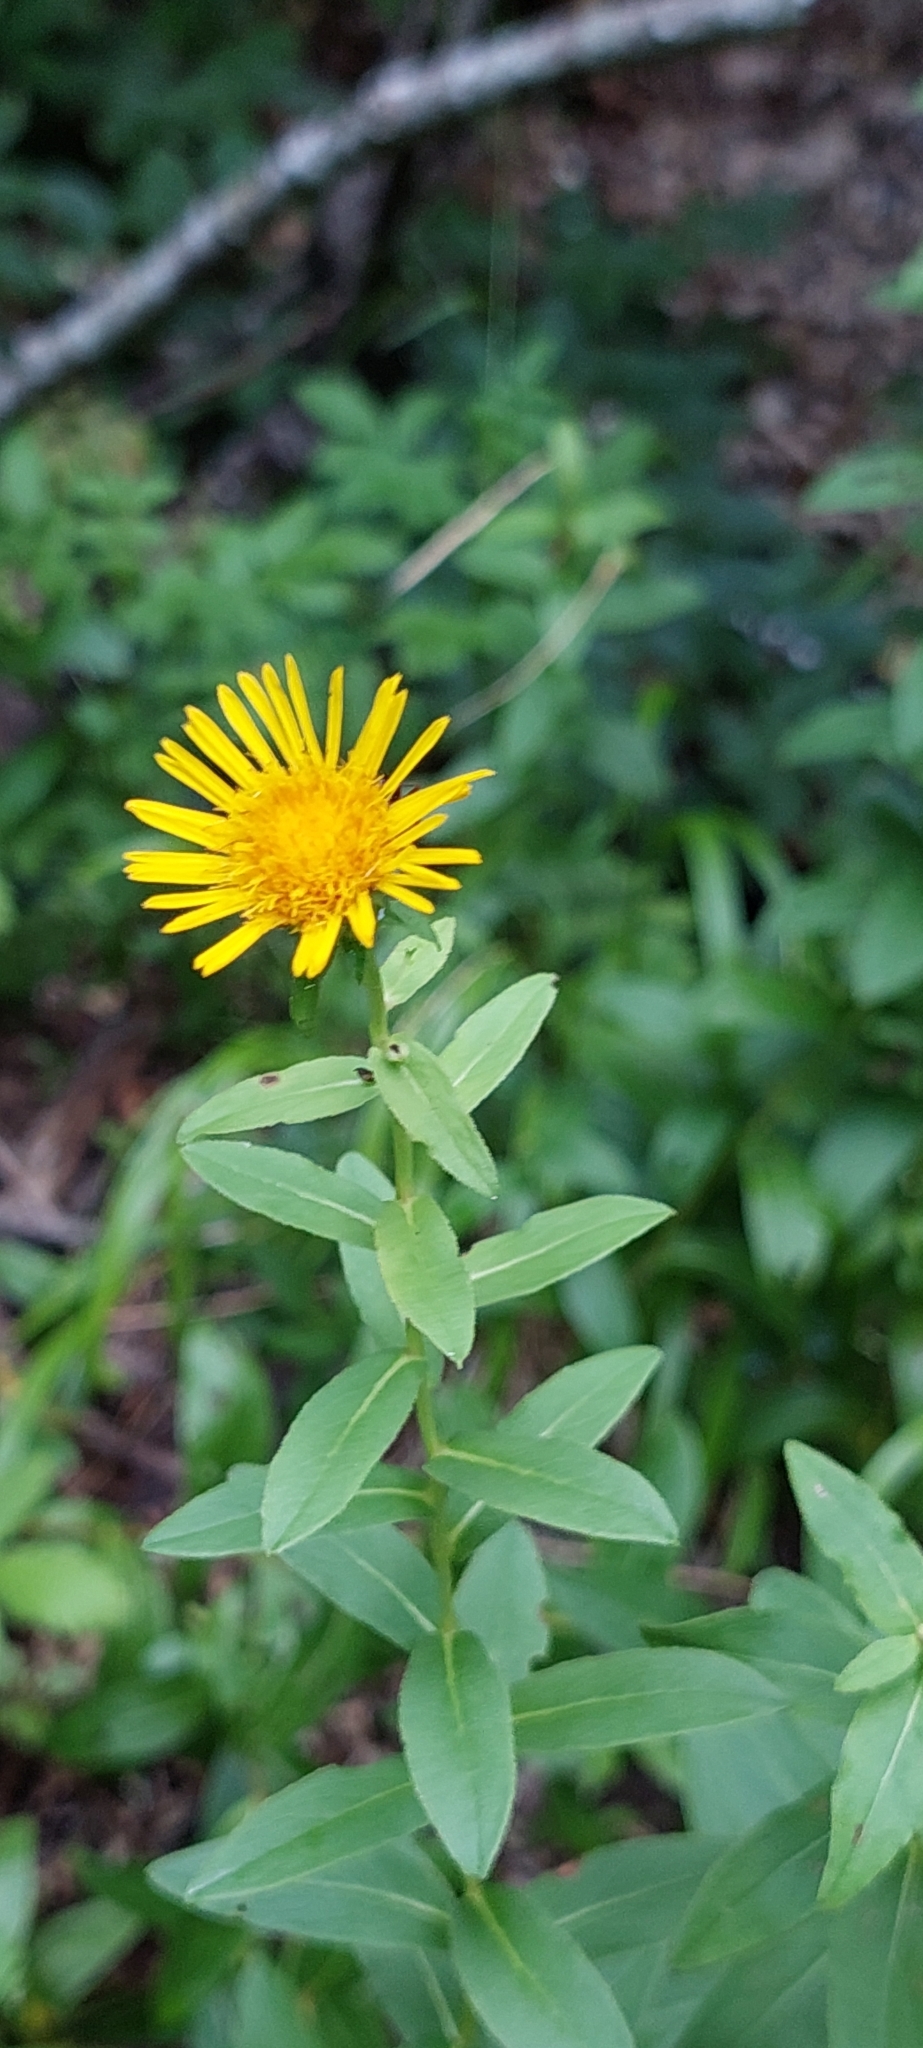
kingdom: Plantae
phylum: Tracheophyta
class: Magnoliopsida
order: Asterales
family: Asteraceae
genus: Pentanema
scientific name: Pentanema asperum
